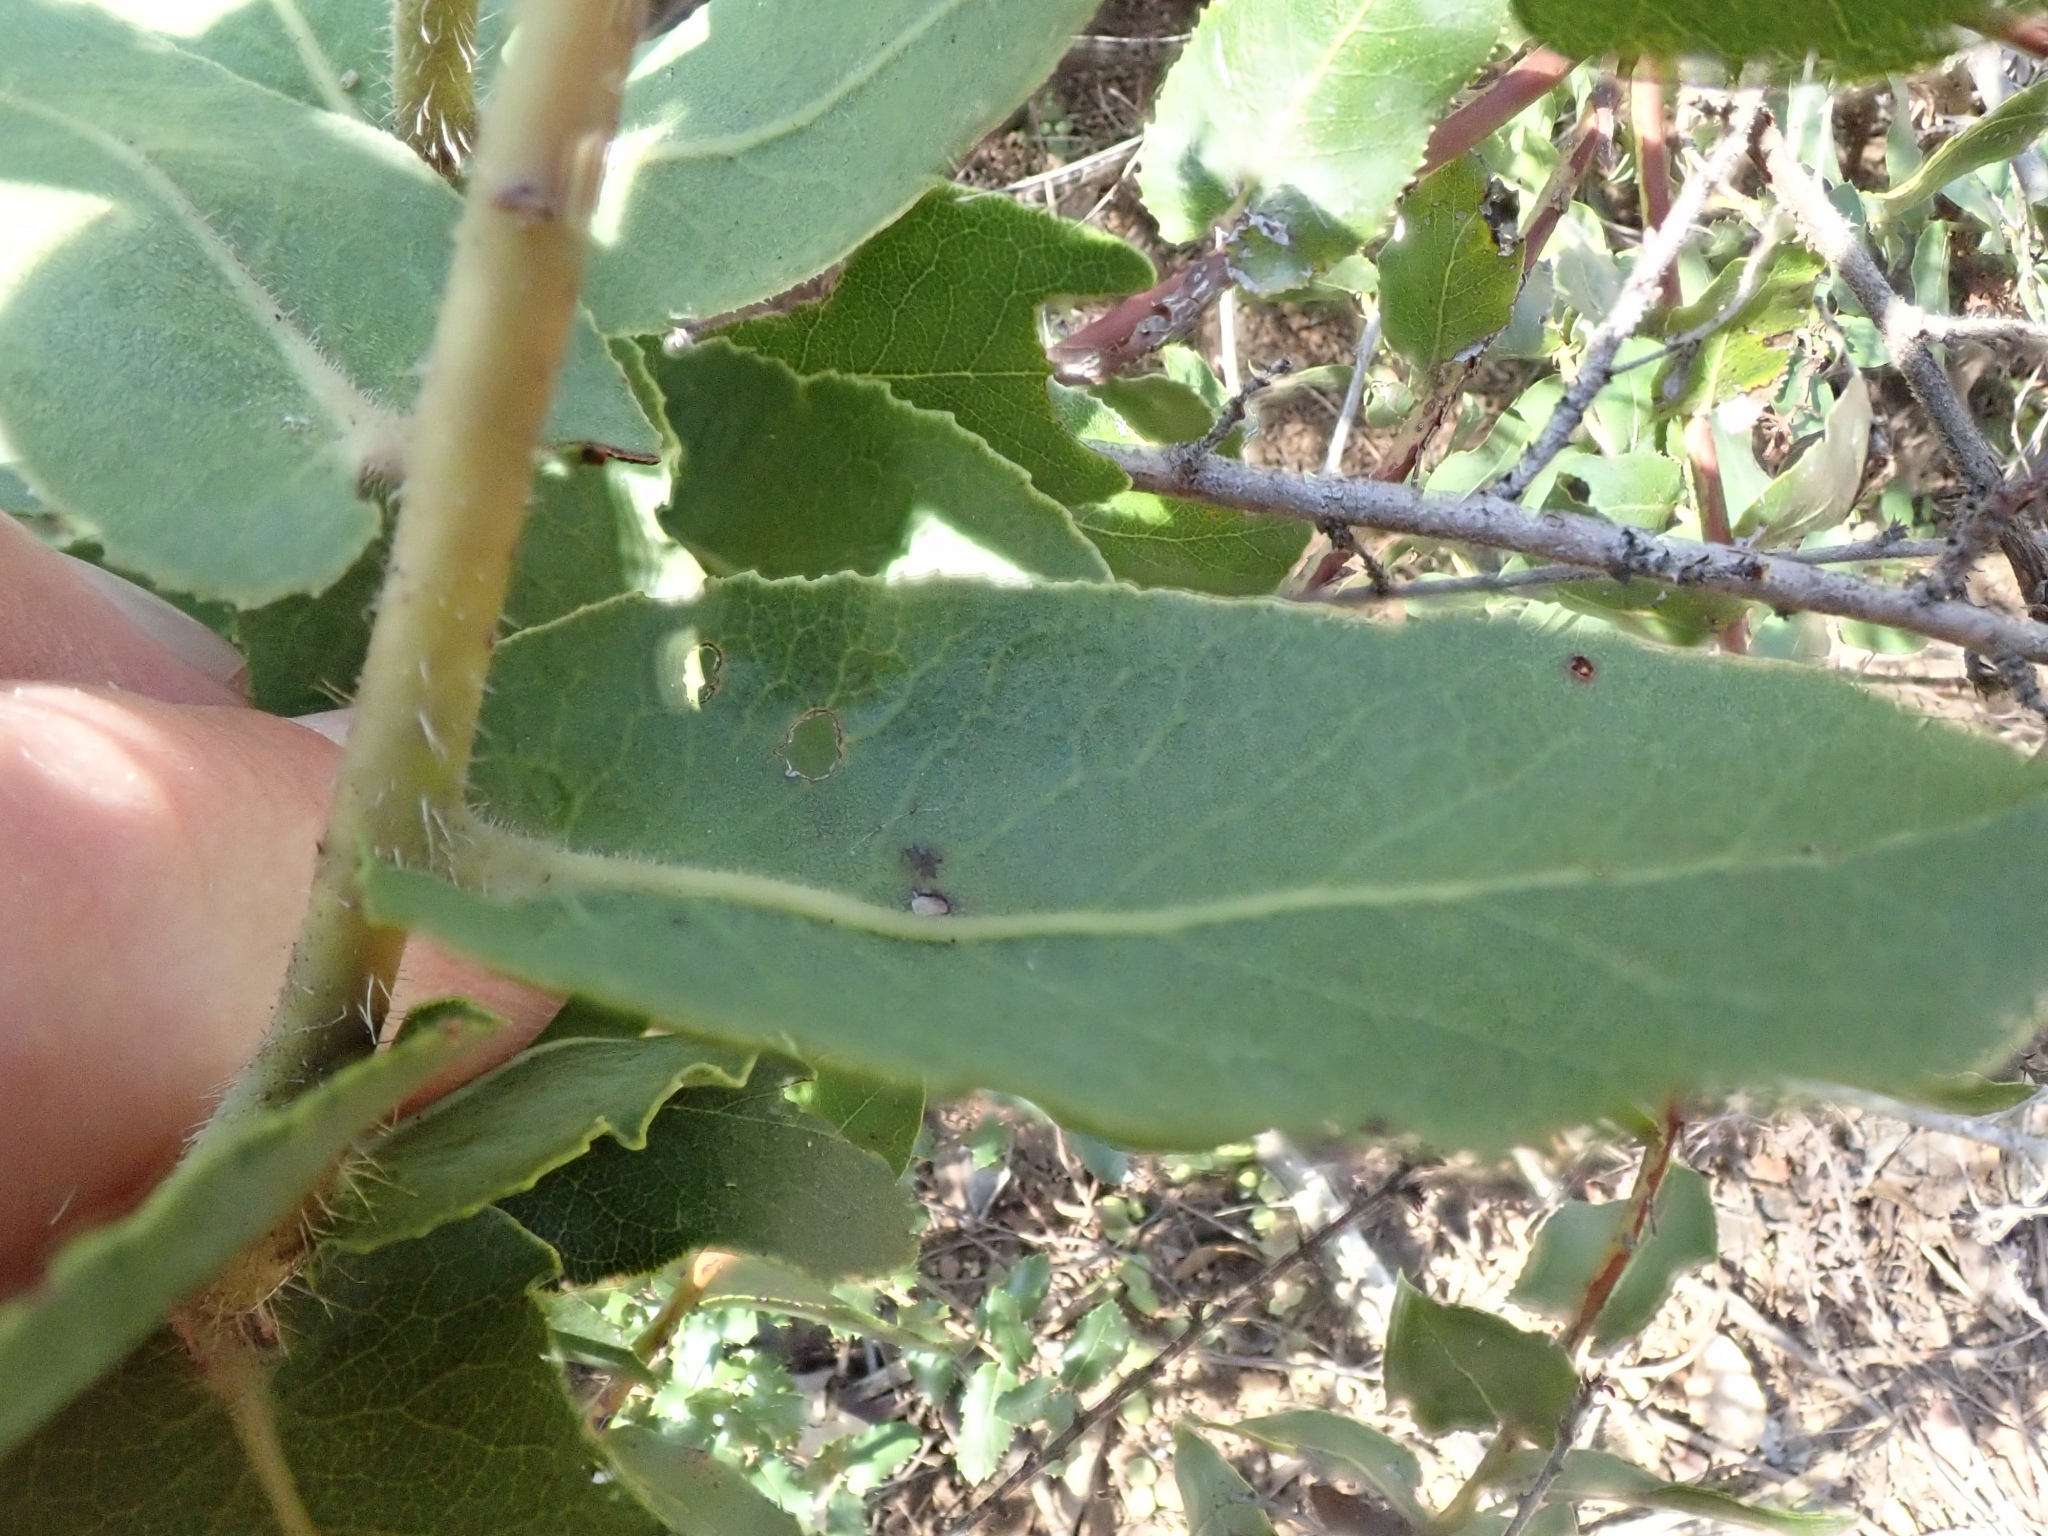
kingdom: Plantae
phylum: Tracheophyta
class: Magnoliopsida
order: Ericales
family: Ericaceae
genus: Arctostaphylos
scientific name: Arctostaphylos andersonii
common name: Santa cruz manzanita
